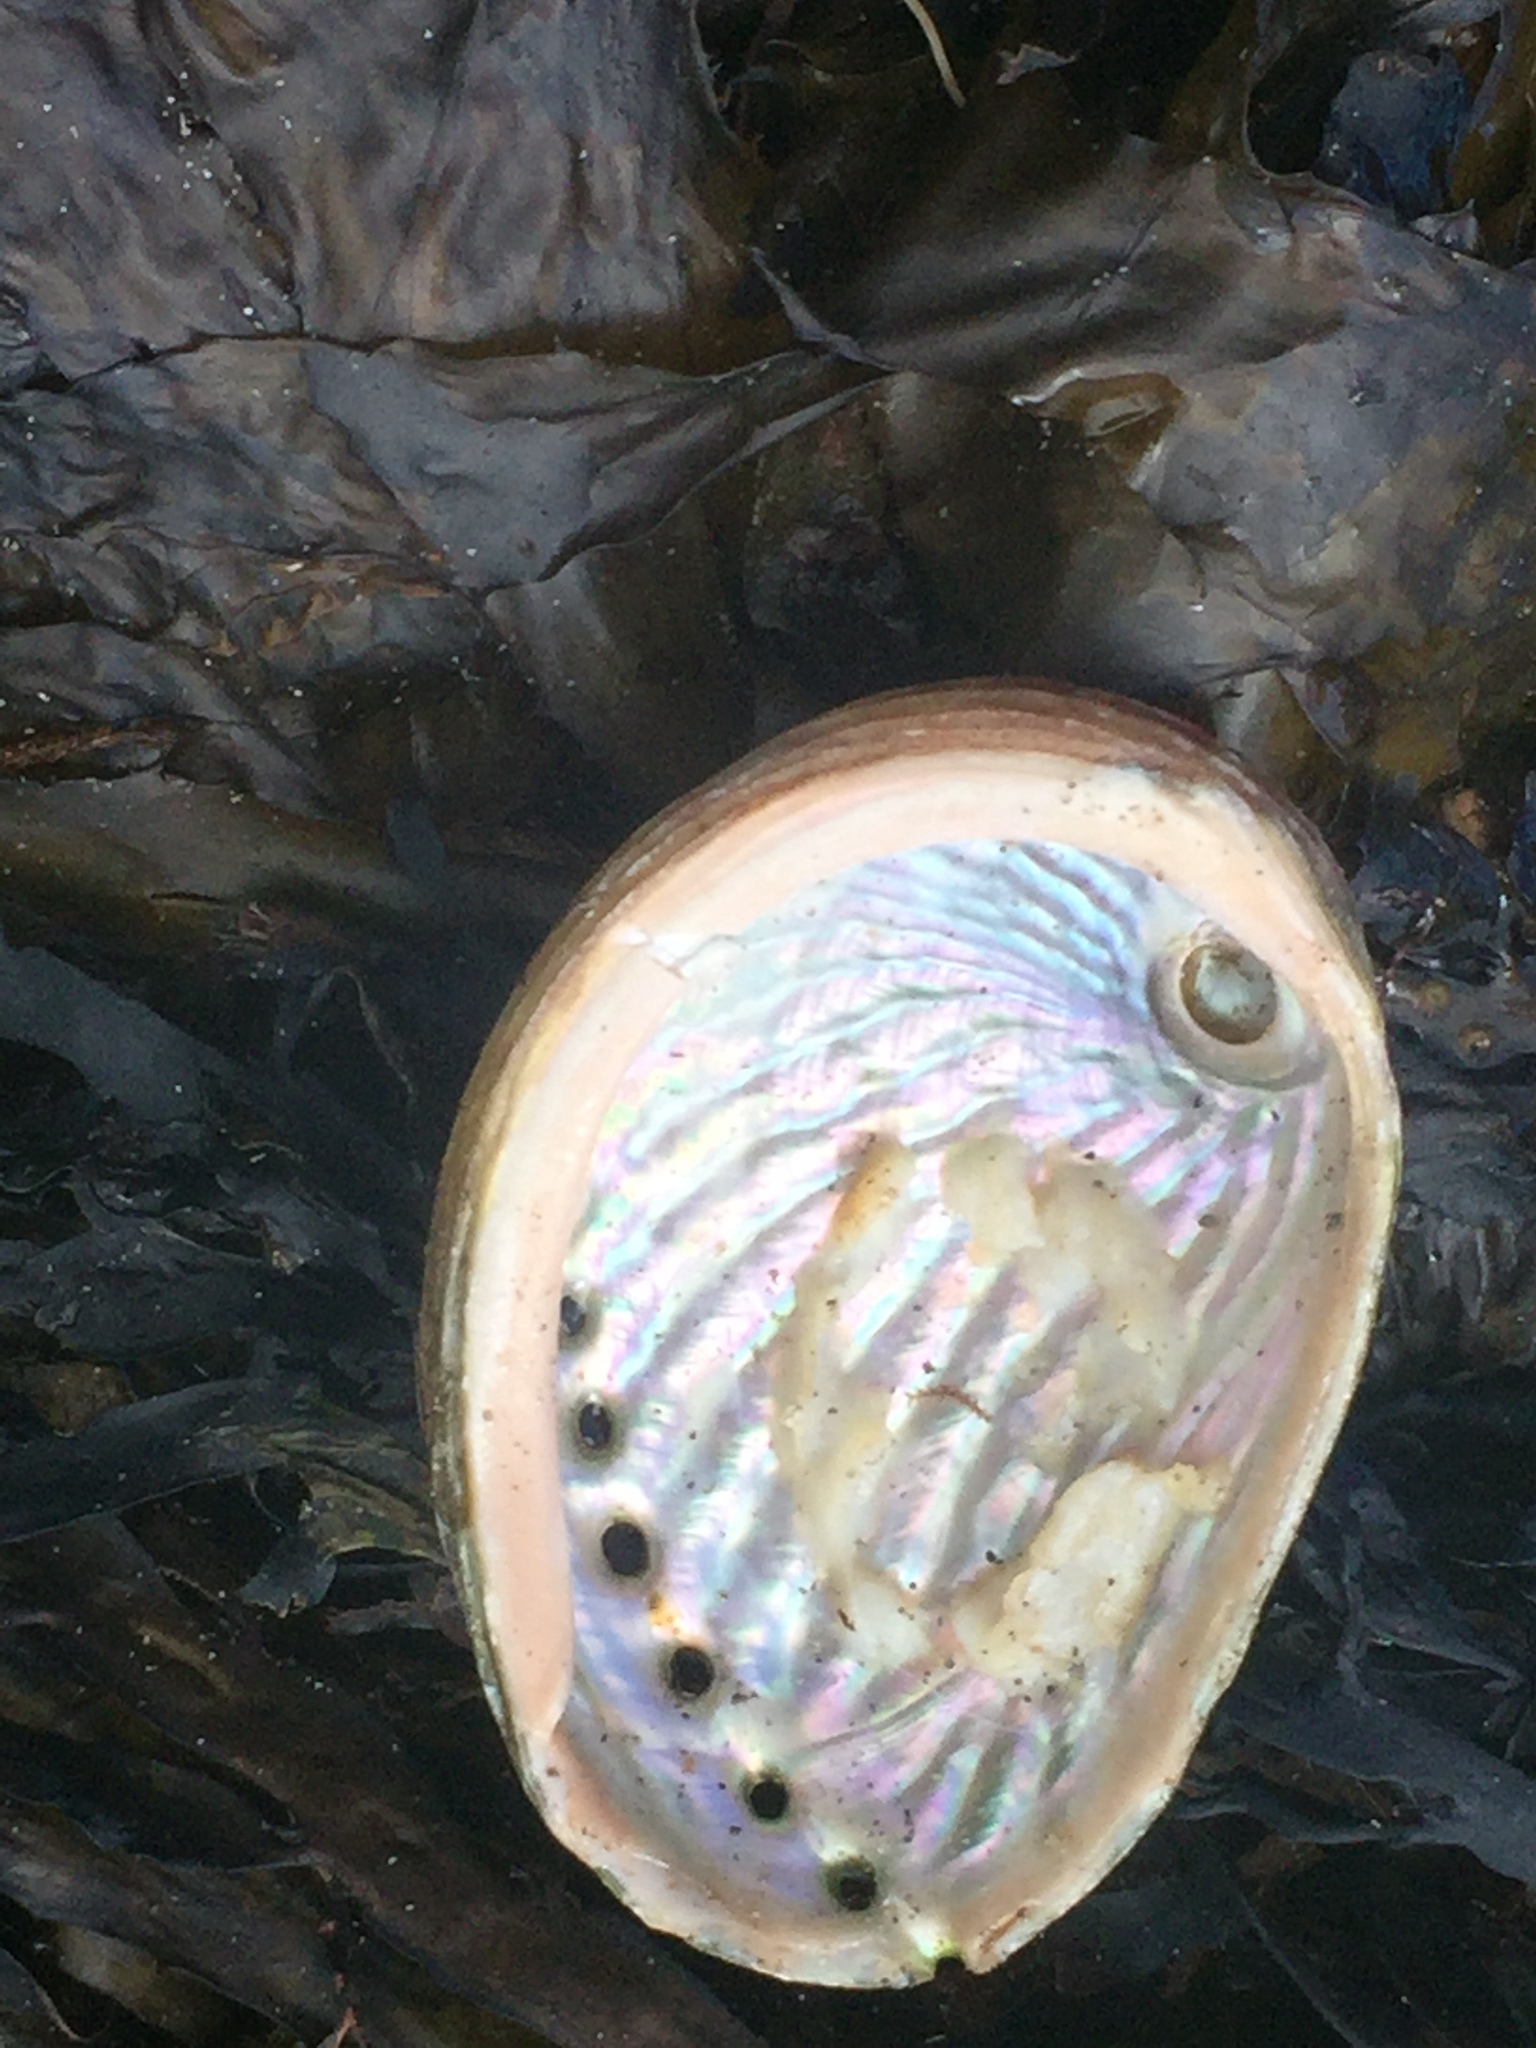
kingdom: Animalia
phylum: Mollusca
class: Gastropoda
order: Lepetellida
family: Haliotidae
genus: Haliotis
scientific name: Haliotis australis
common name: Silver abalone
